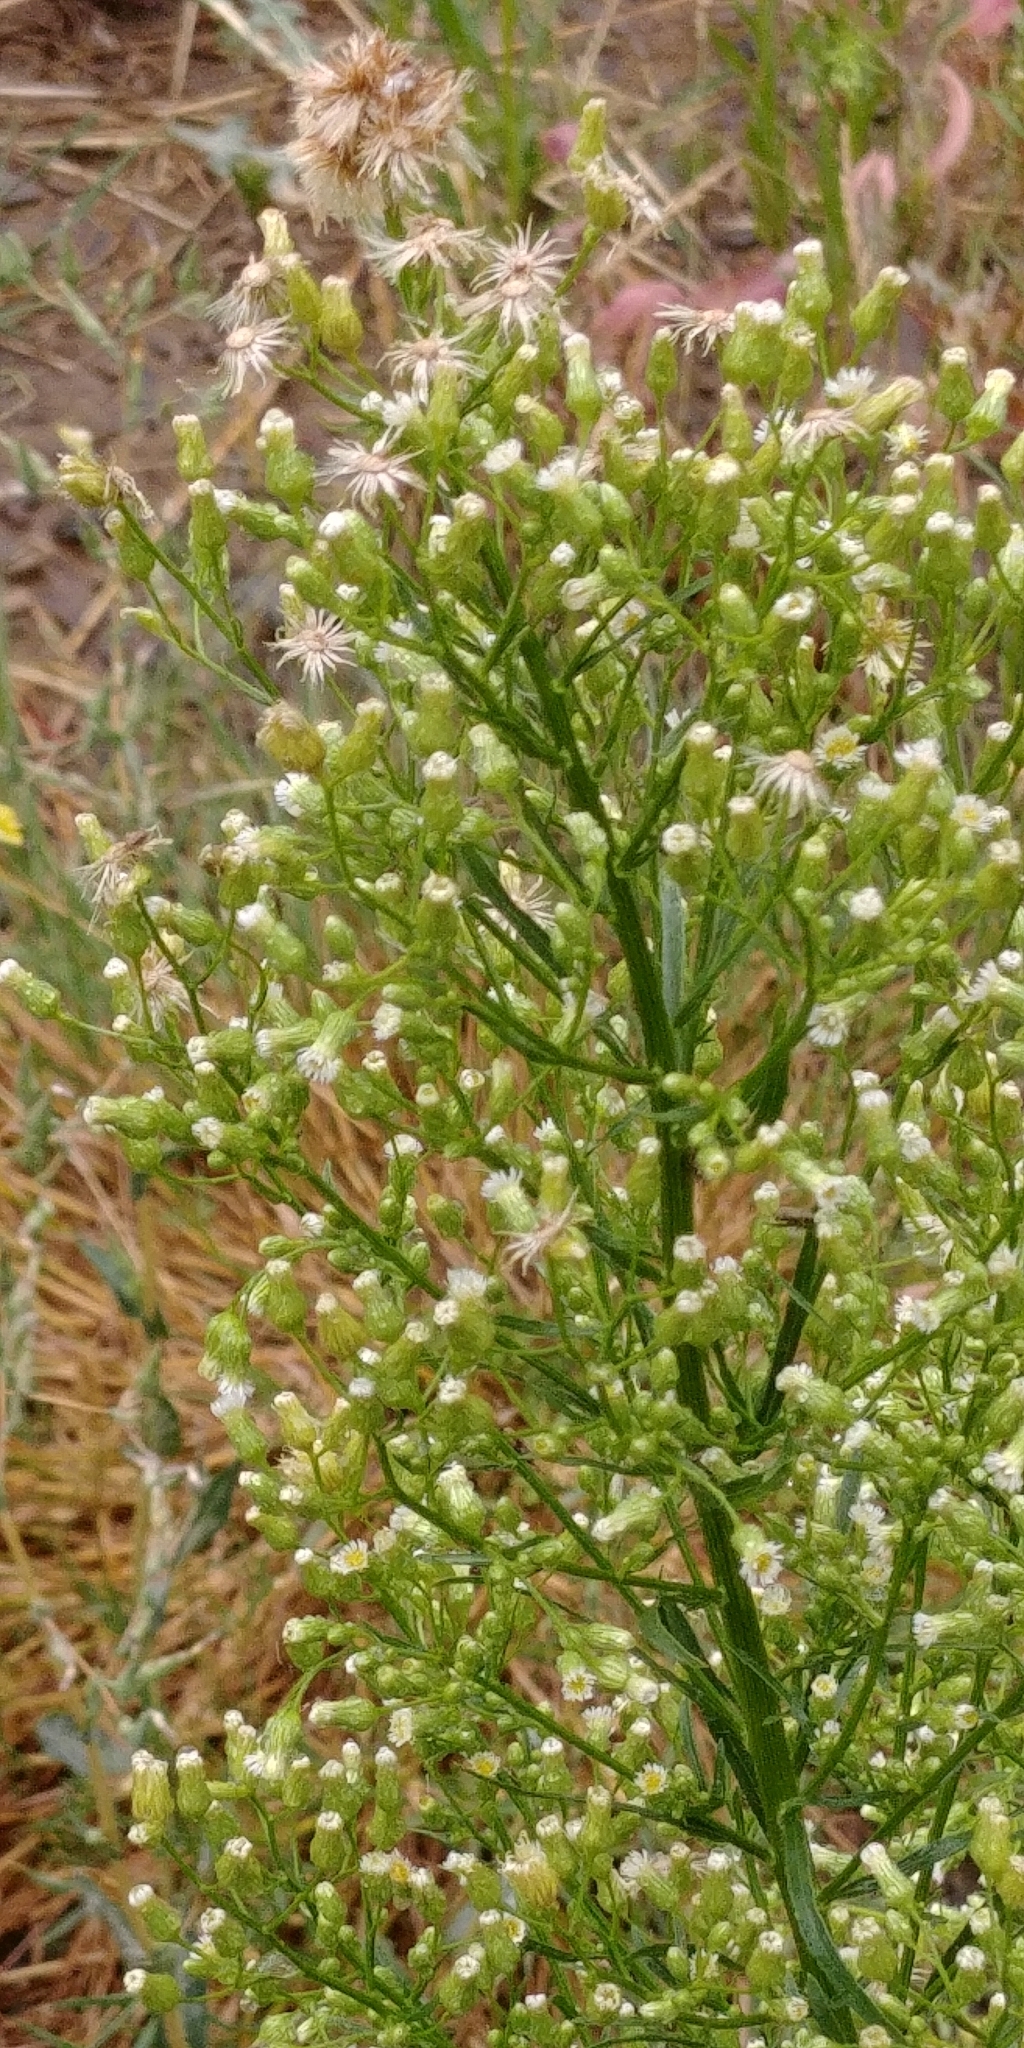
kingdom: Plantae
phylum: Tracheophyta
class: Magnoliopsida
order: Asterales
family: Asteraceae
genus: Erigeron
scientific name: Erigeron canadensis
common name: Canadian fleabane
